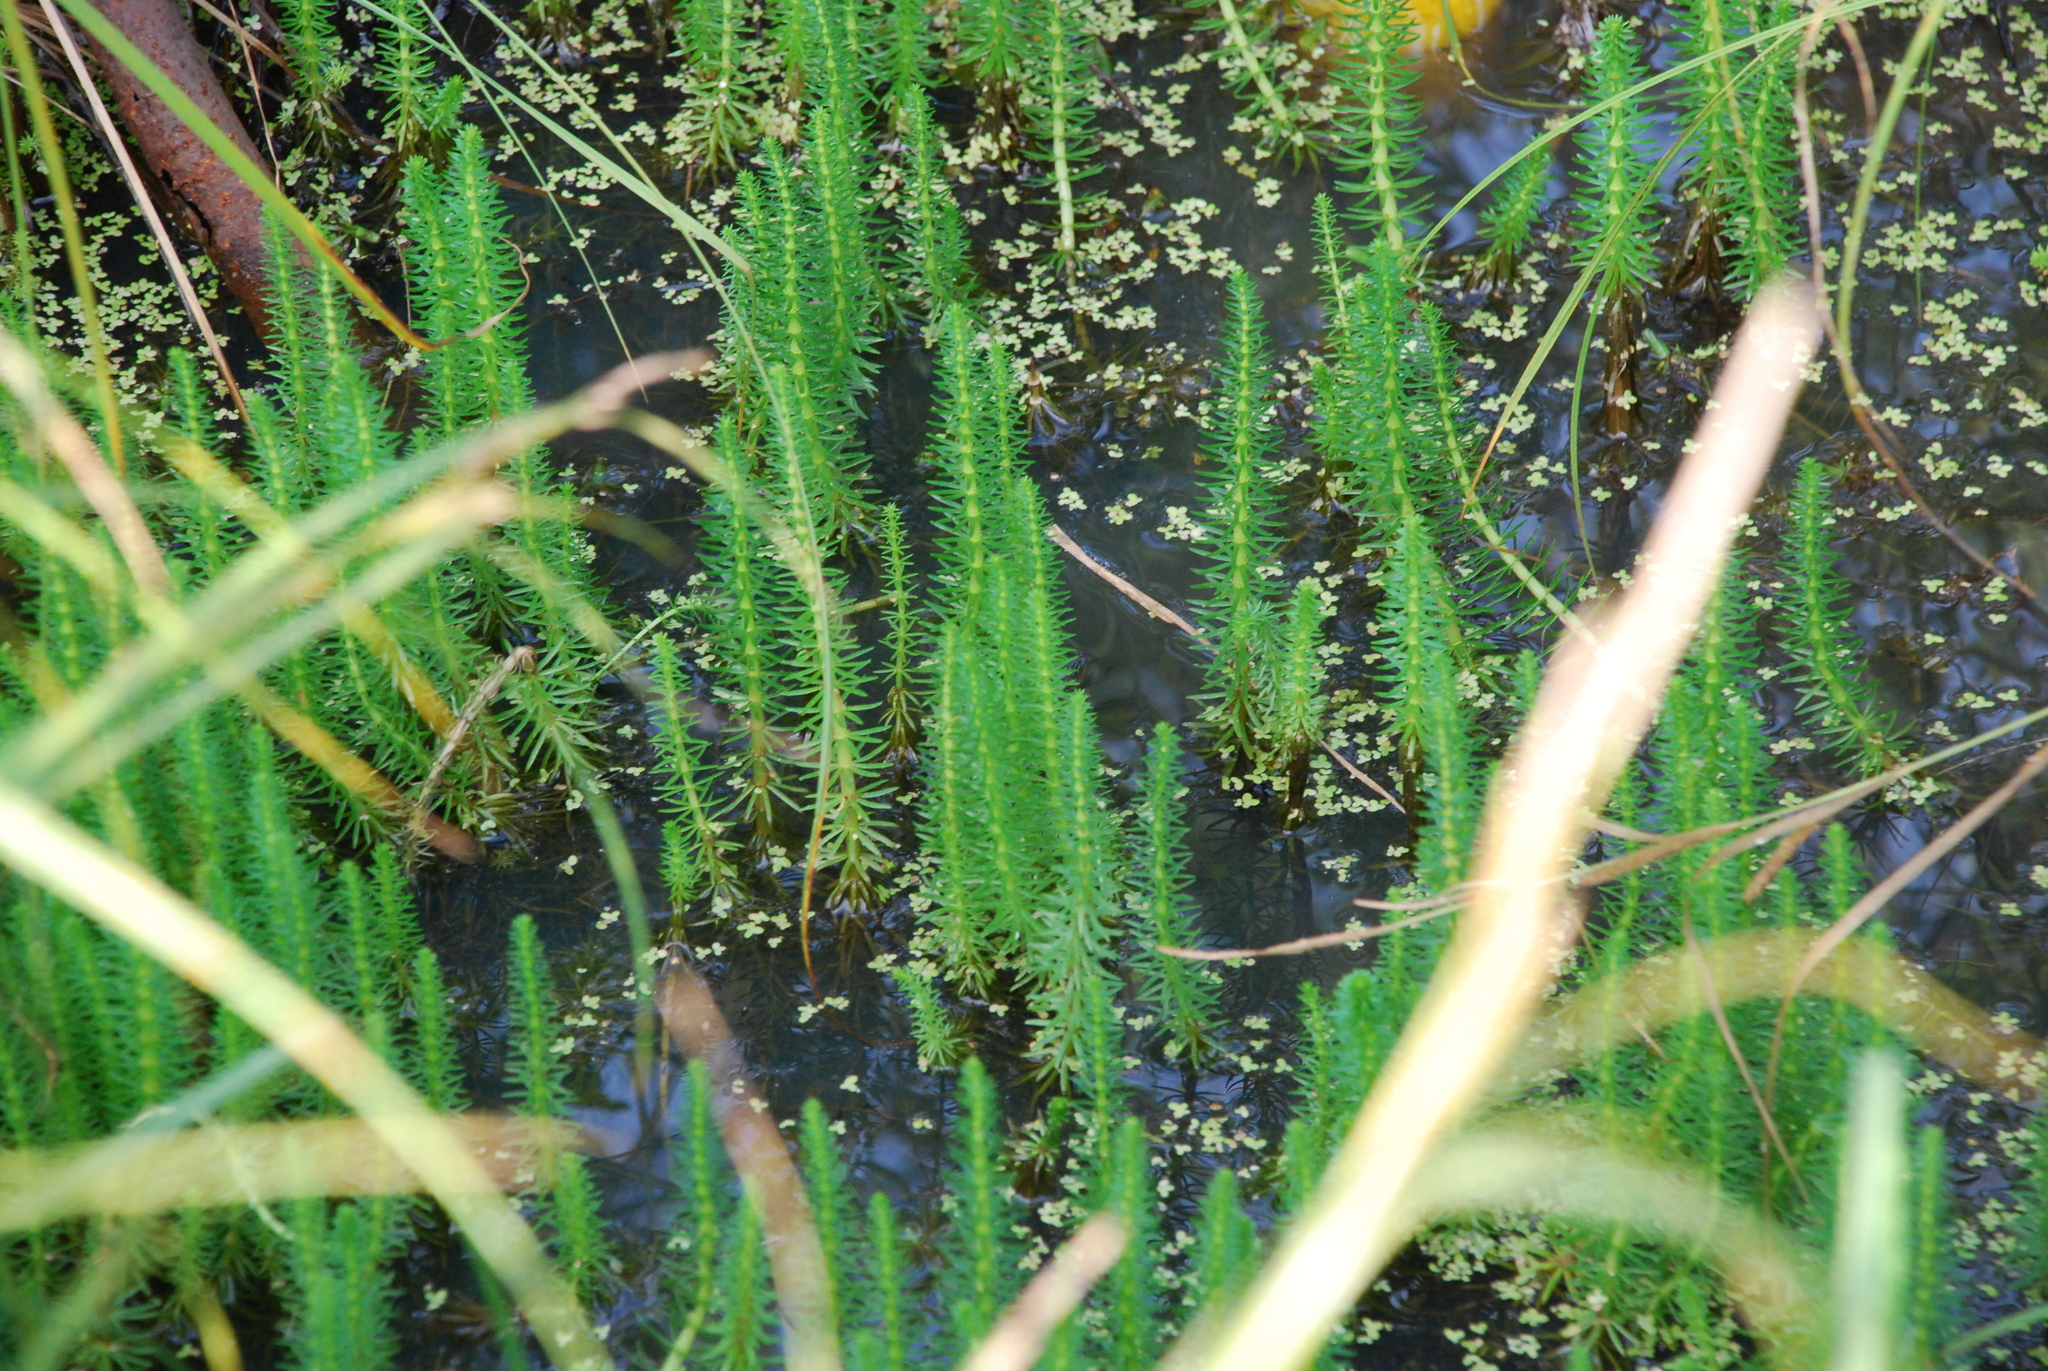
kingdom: Plantae
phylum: Tracheophyta
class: Magnoliopsida
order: Lamiales
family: Plantaginaceae
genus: Hippuris
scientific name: Hippuris vulgaris
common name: Mare's-tail
